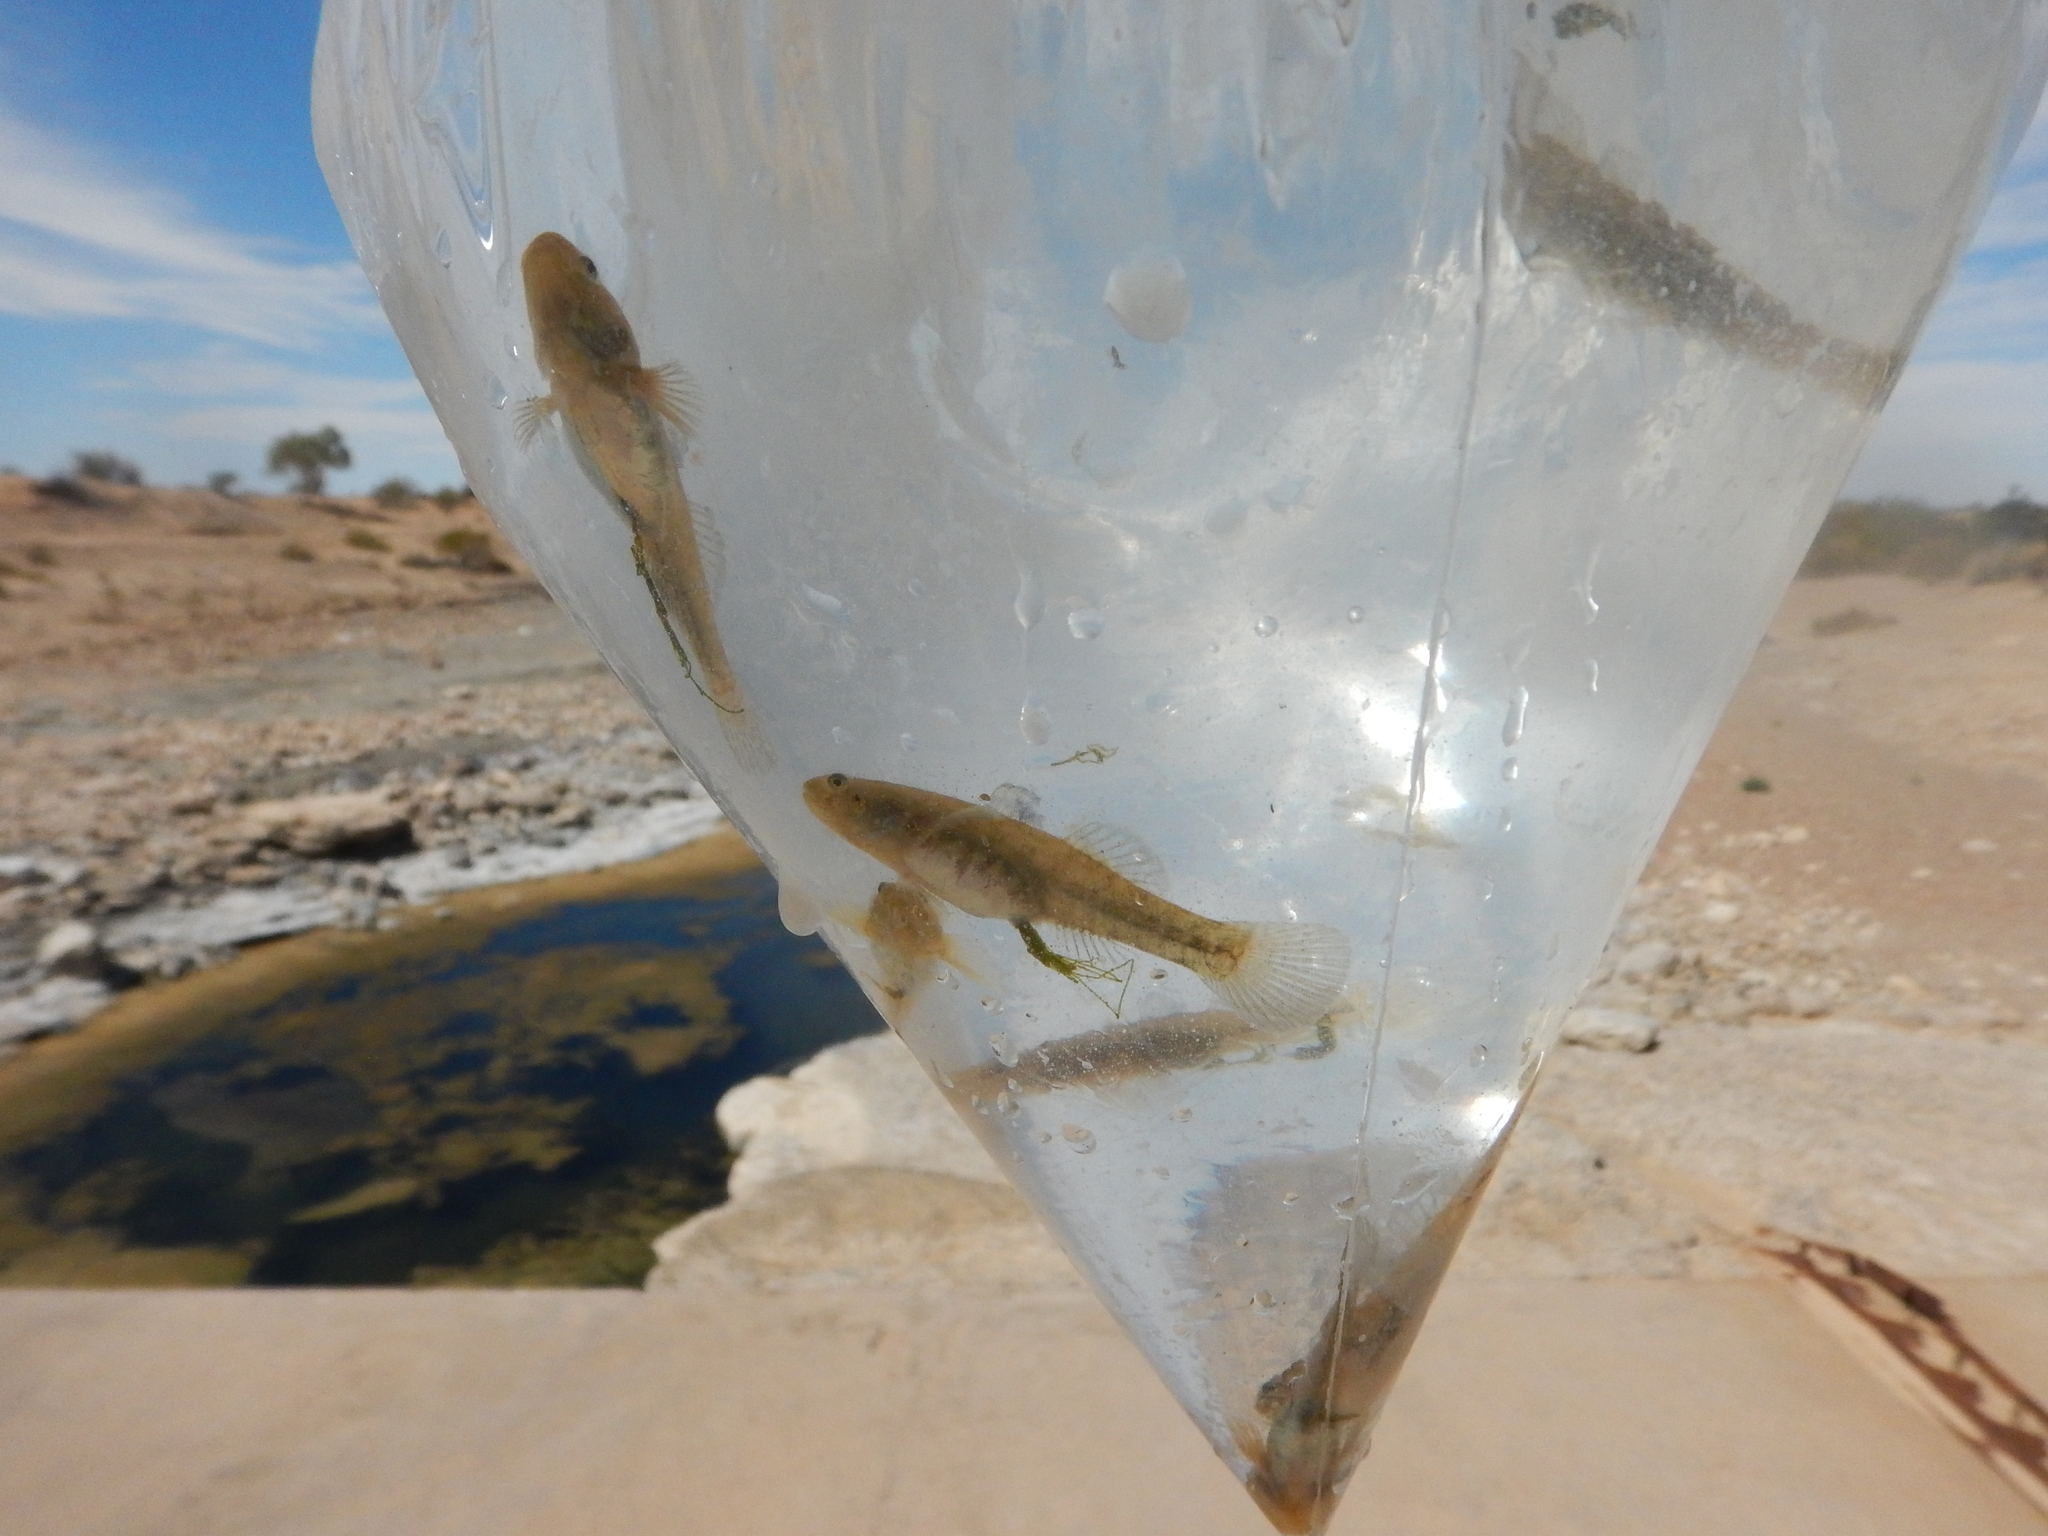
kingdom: Animalia
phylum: Chordata
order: Perciformes
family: Gobiidae
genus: Chlamydogobius
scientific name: Chlamydogobius eremius
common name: Desert goby
